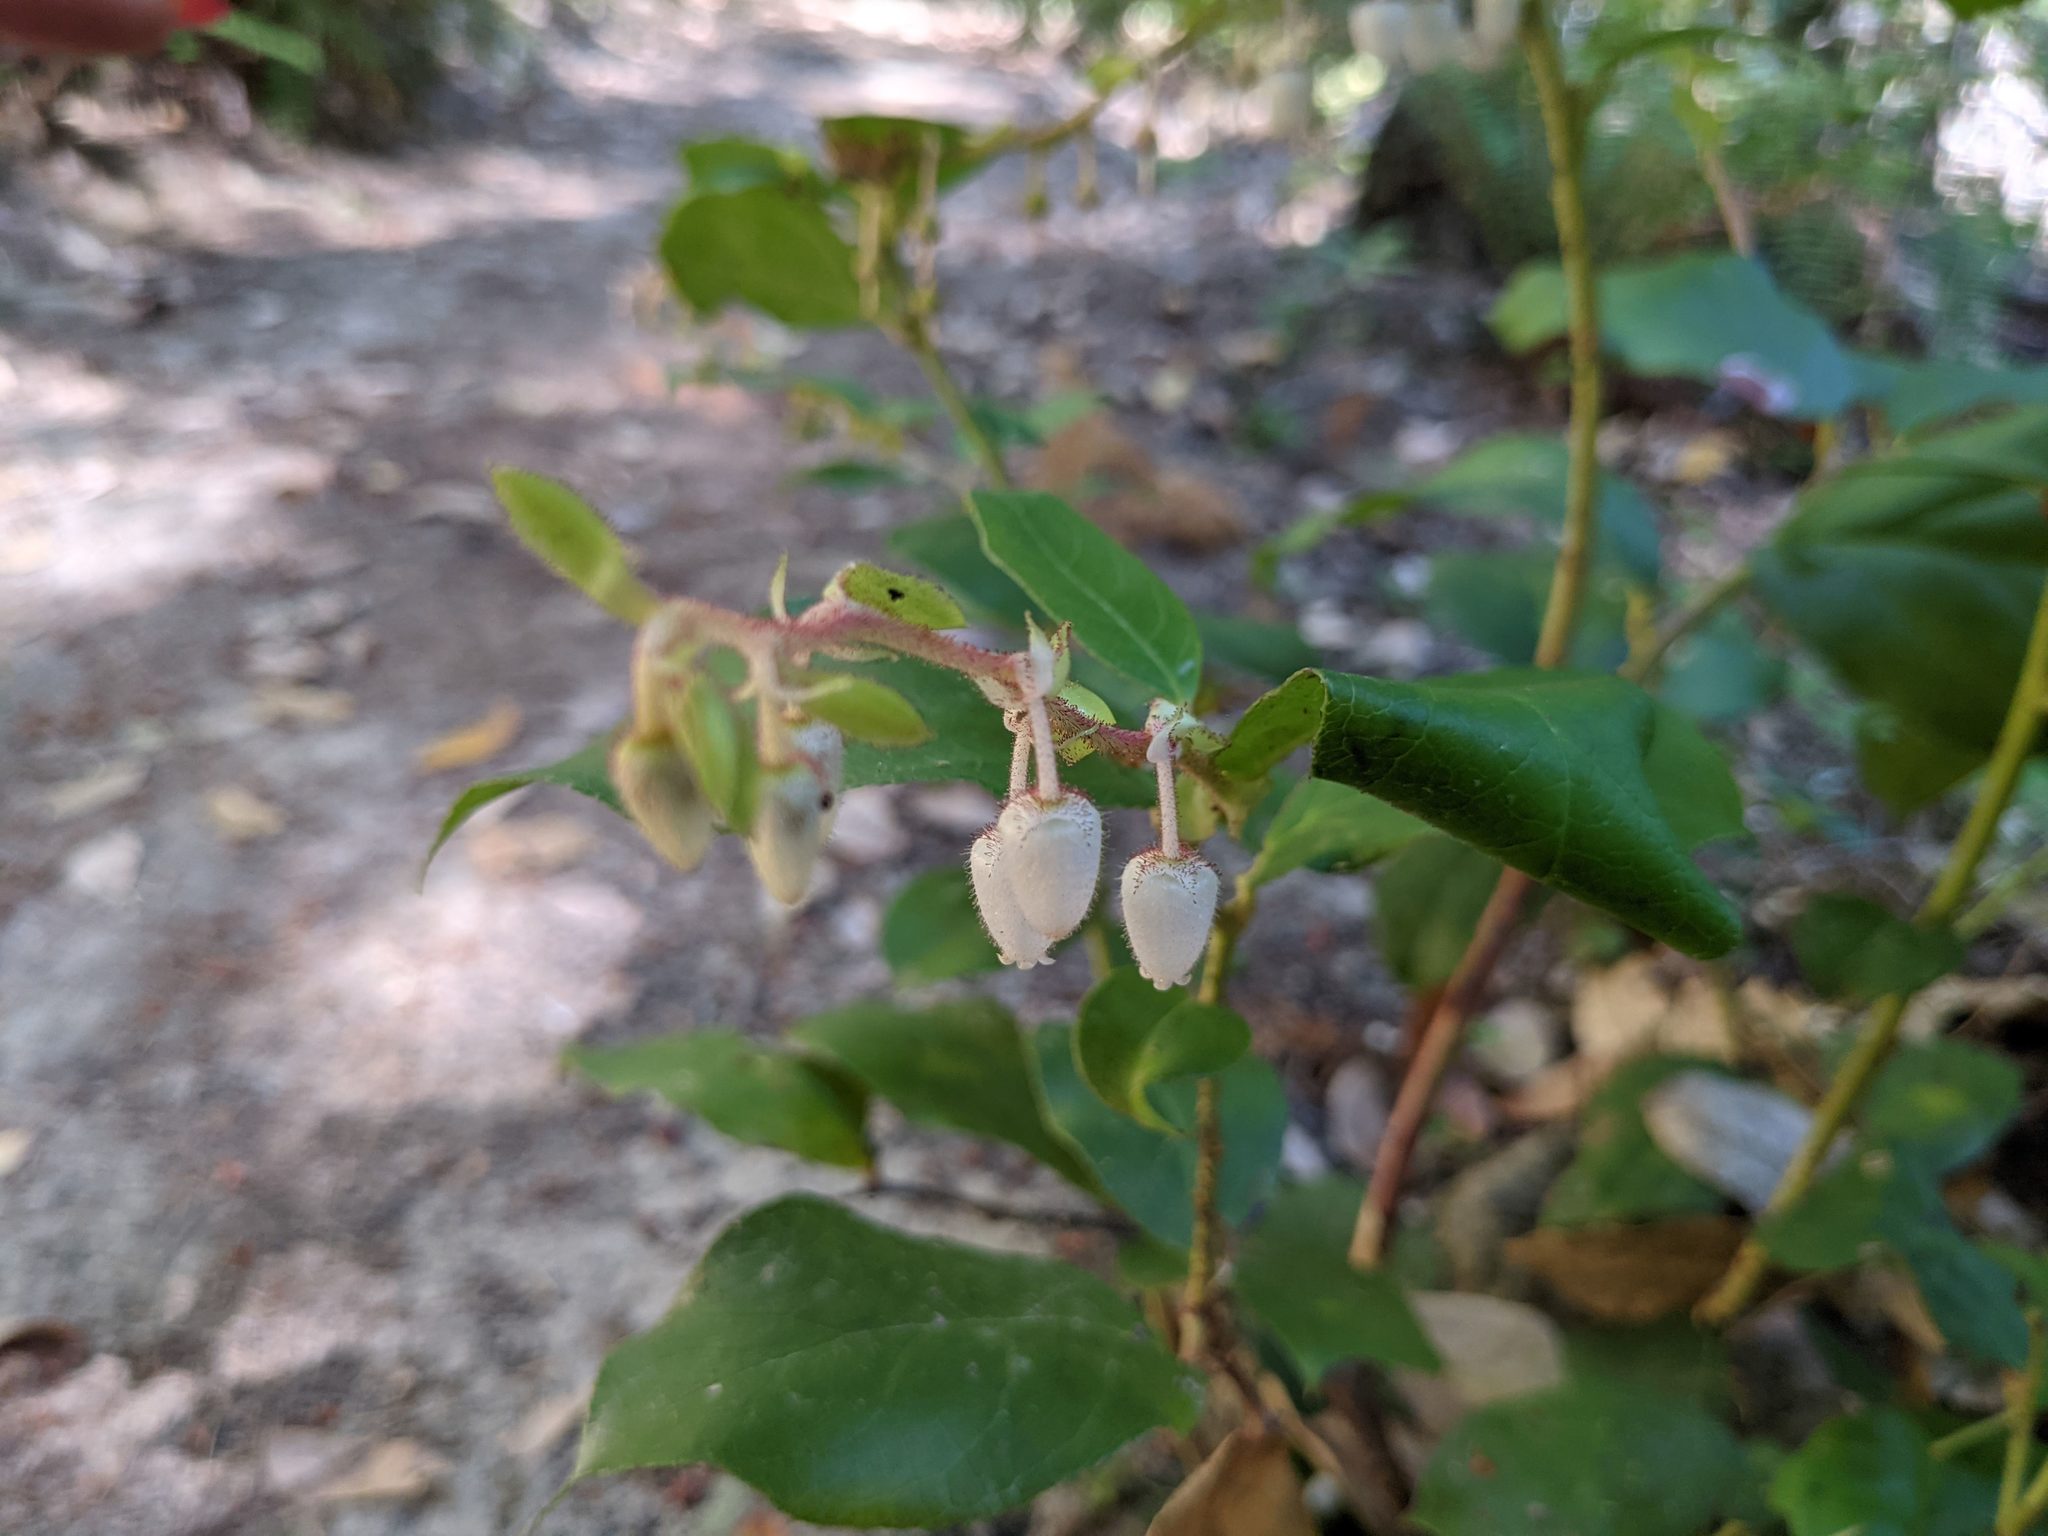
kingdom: Plantae
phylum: Tracheophyta
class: Magnoliopsida
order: Ericales
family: Ericaceae
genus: Gaultheria
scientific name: Gaultheria shallon
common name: Shallon
